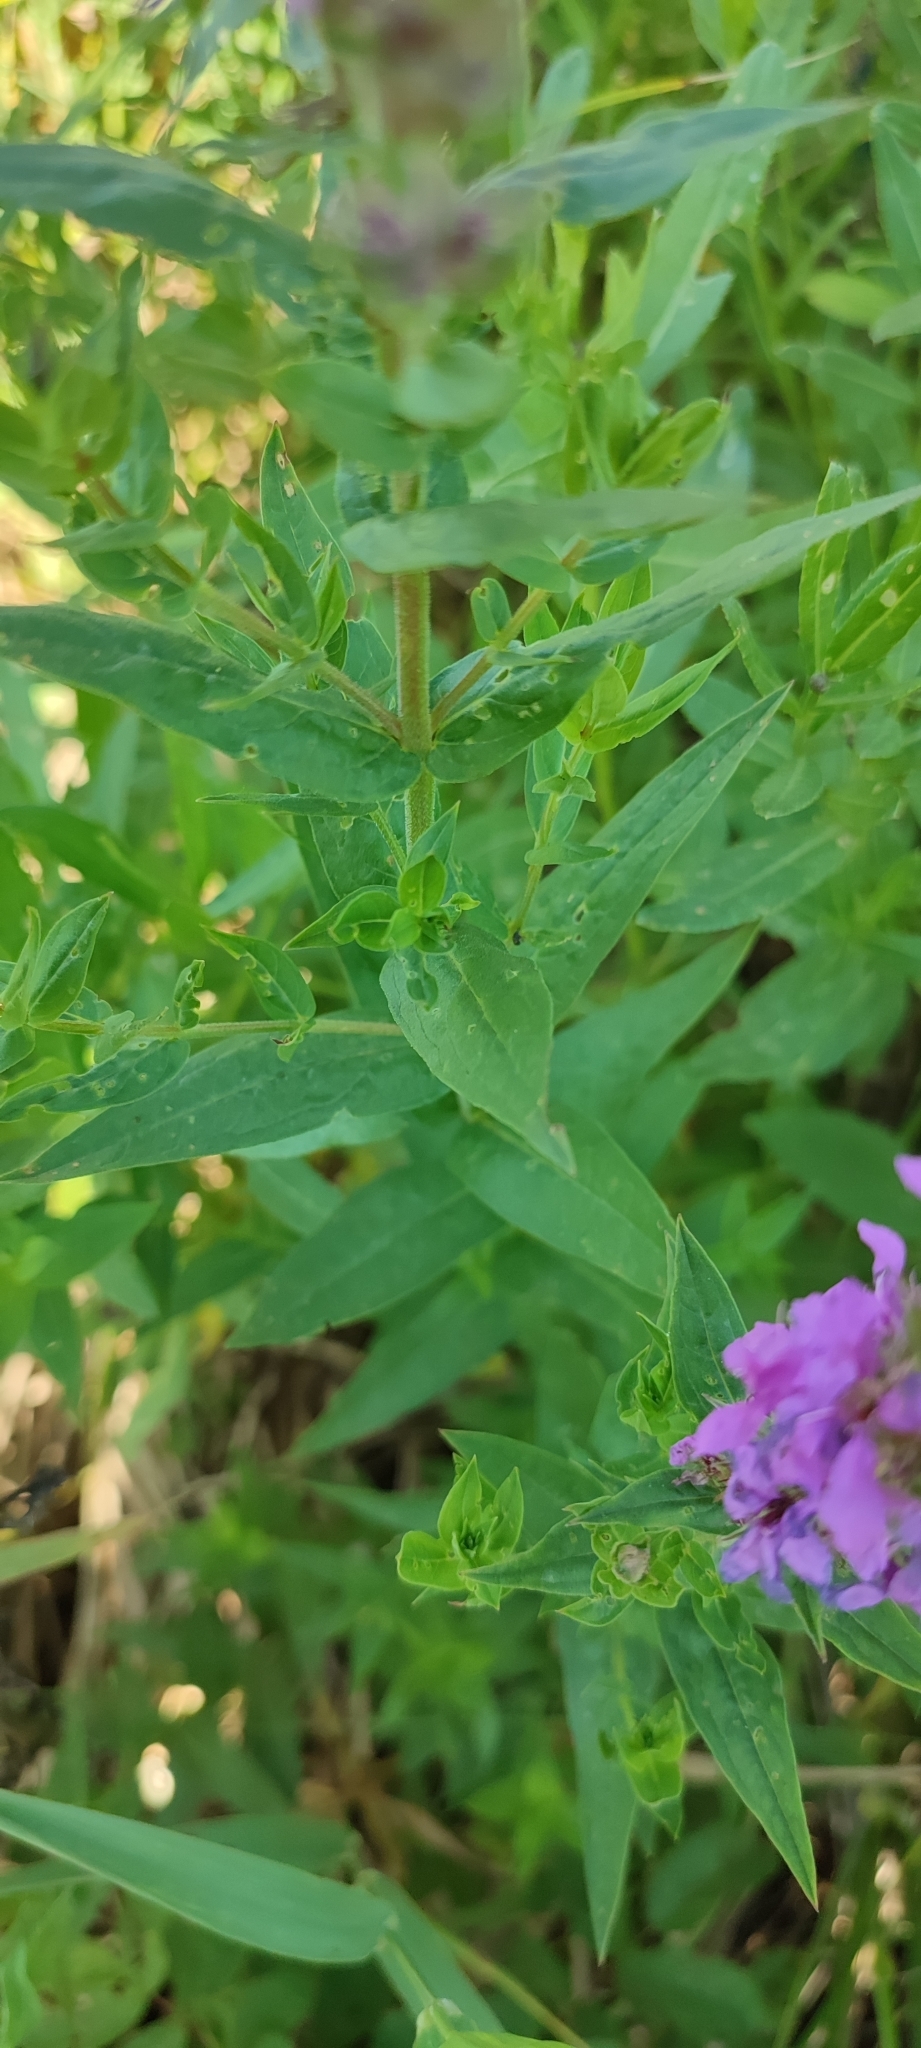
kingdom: Plantae
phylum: Tracheophyta
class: Magnoliopsida
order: Myrtales
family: Lythraceae
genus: Lythrum
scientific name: Lythrum salicaria
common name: Purple loosestrife
